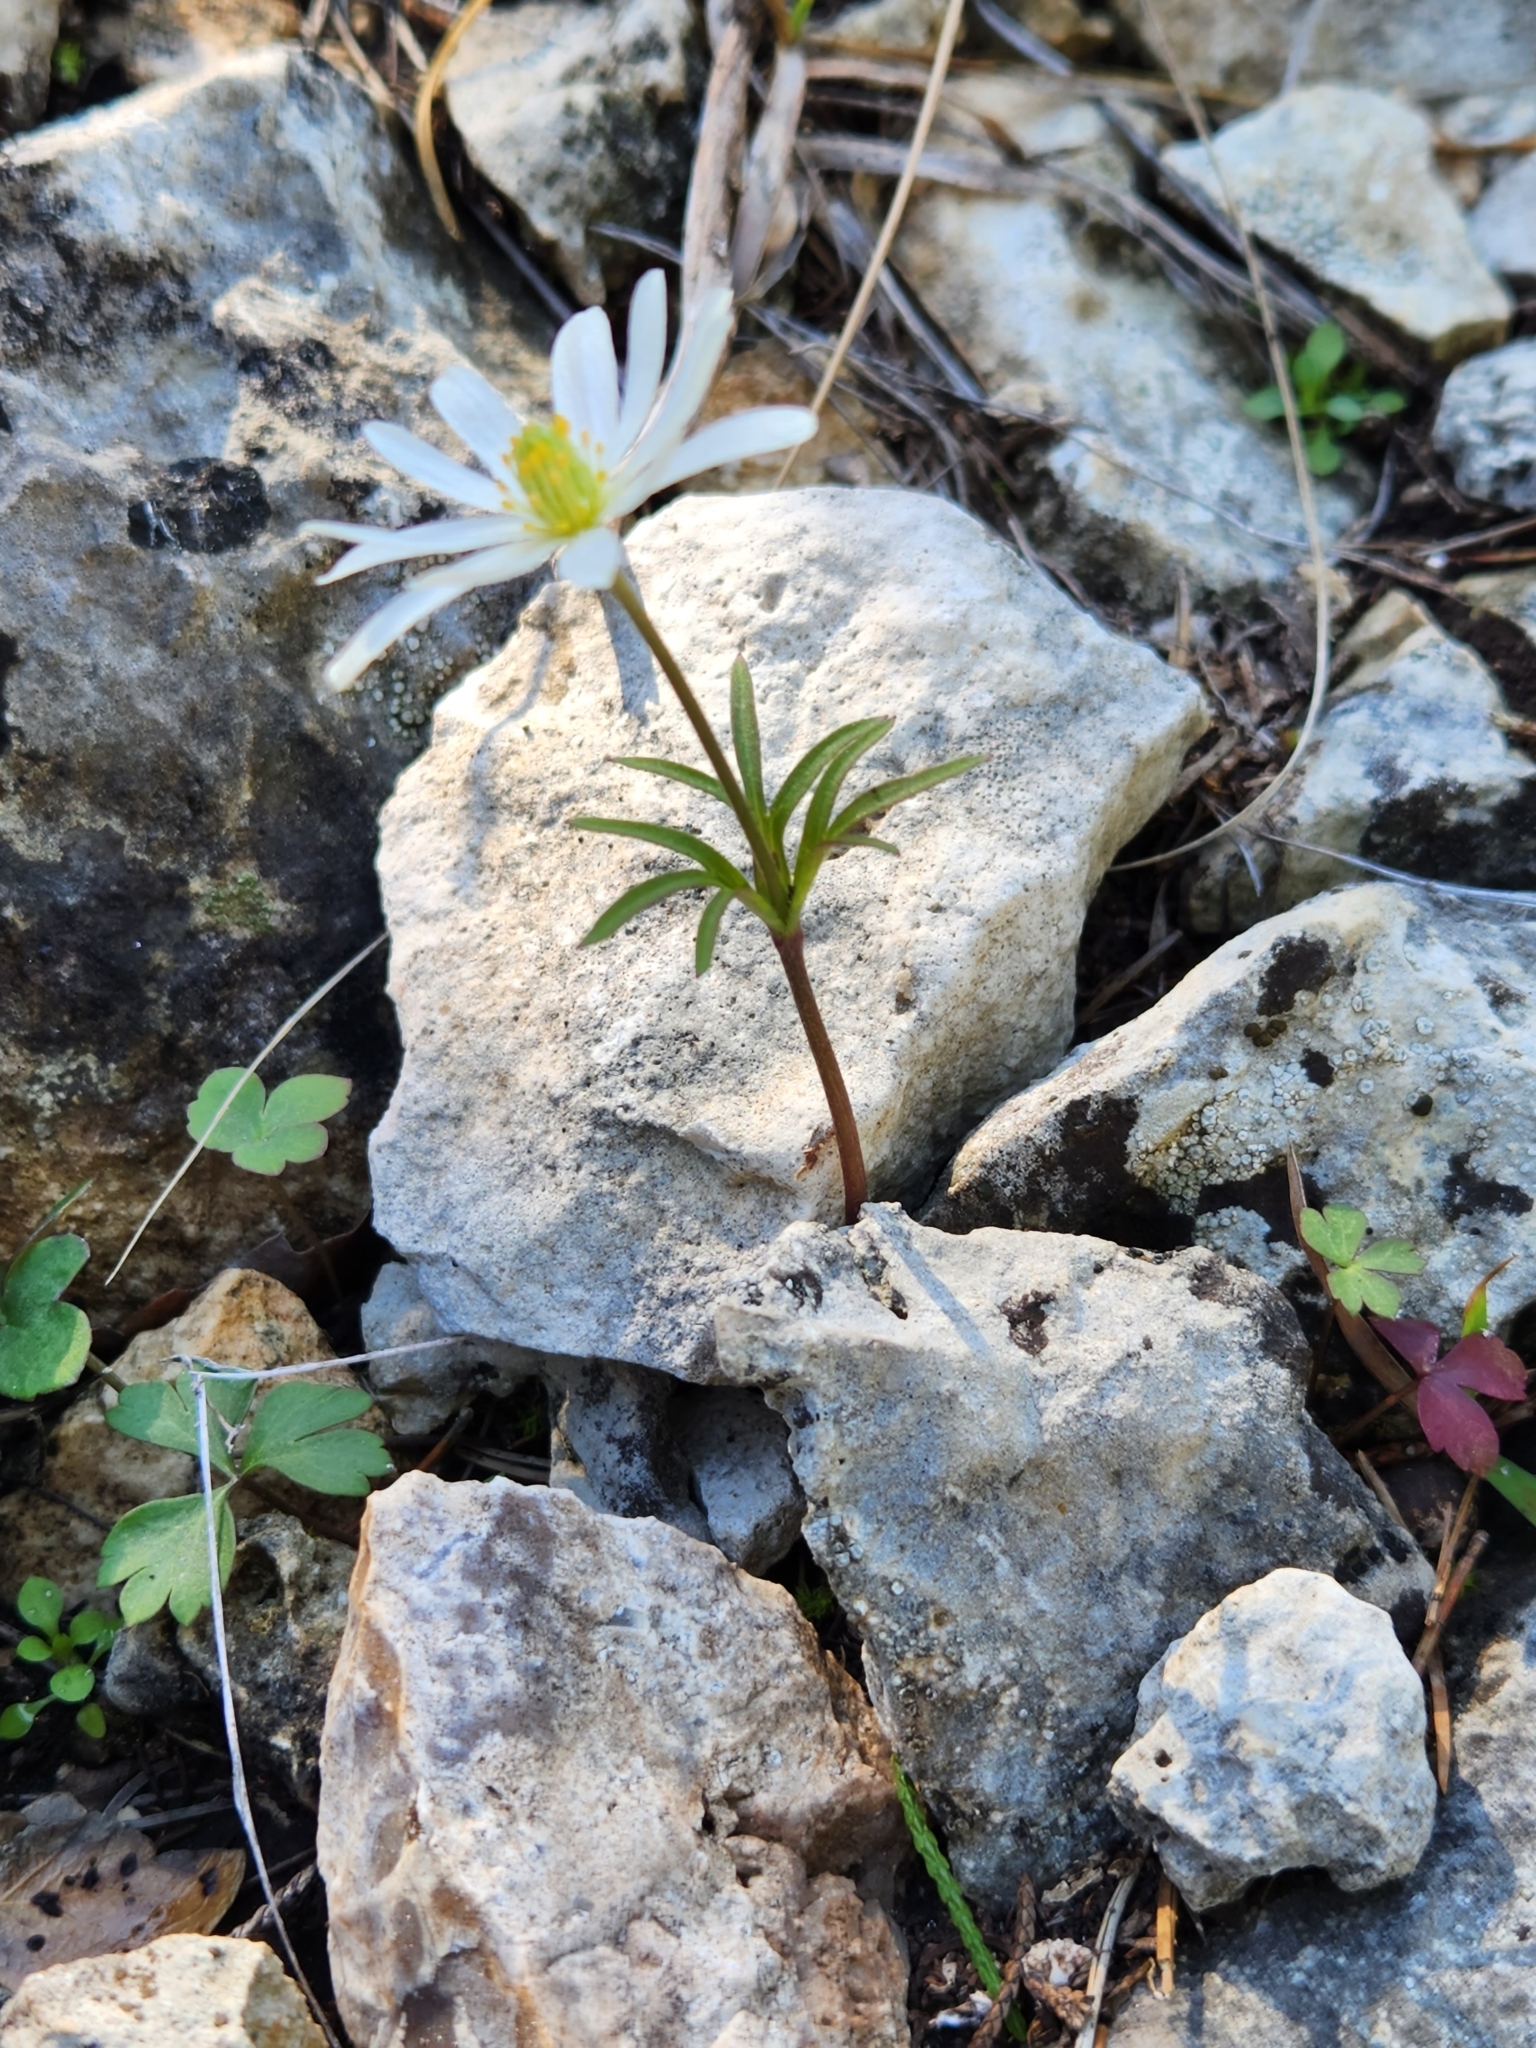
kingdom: Plantae
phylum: Tracheophyta
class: Magnoliopsida
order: Ranunculales
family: Ranunculaceae
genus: Anemone
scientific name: Anemone edwardsiana
